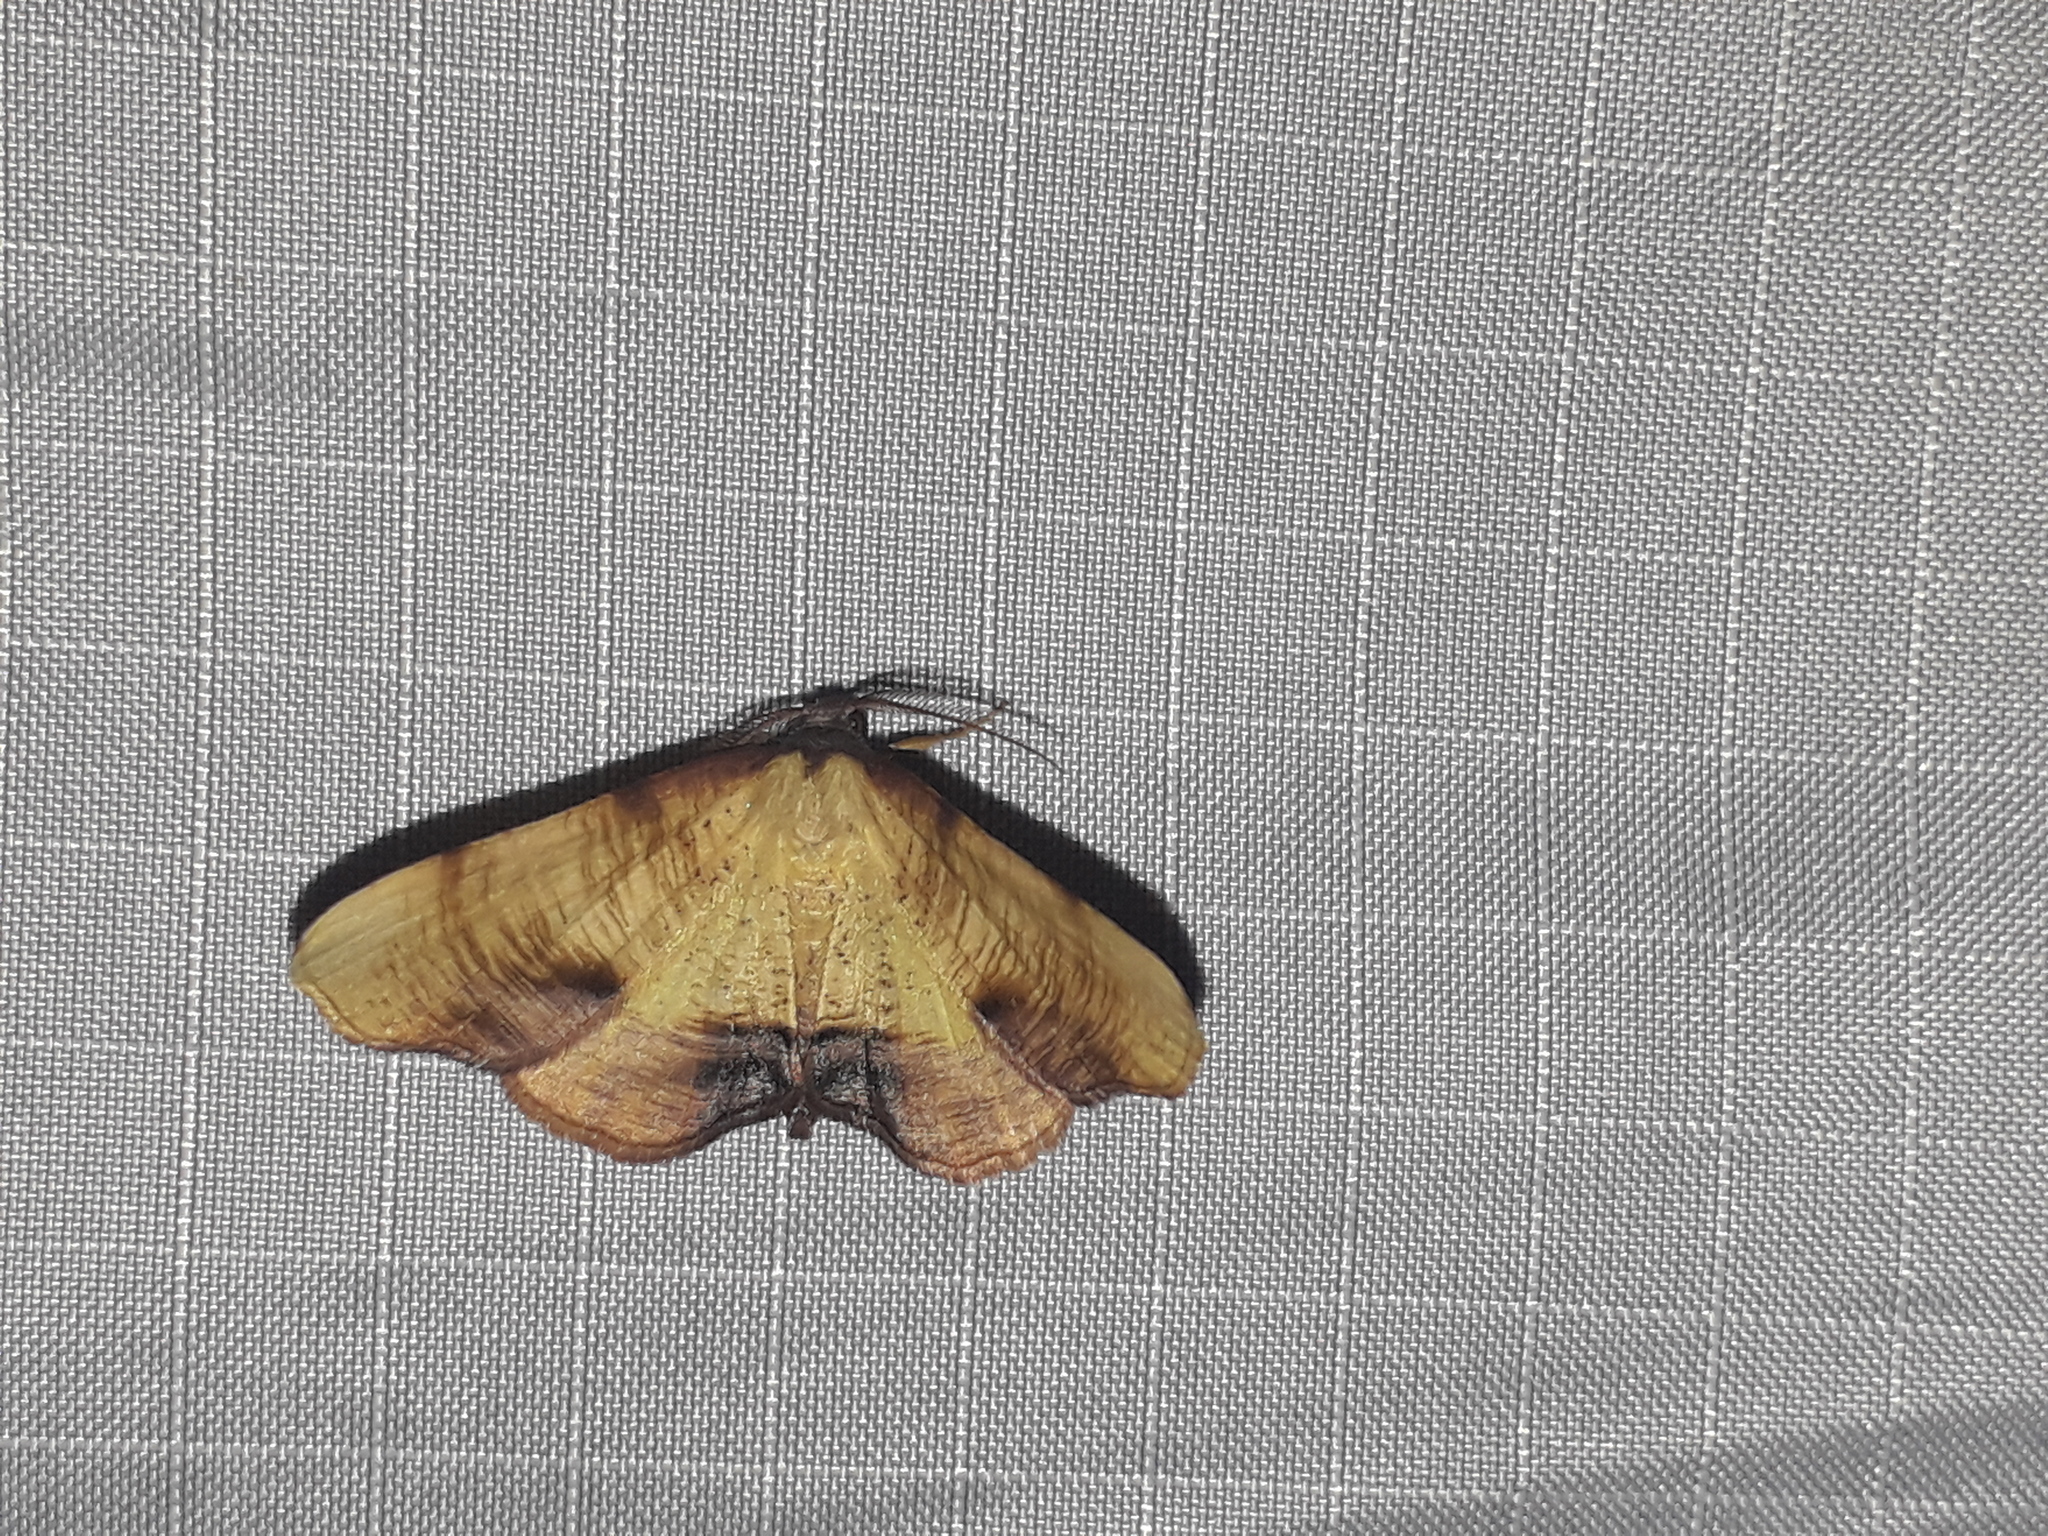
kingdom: Animalia
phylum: Arthropoda
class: Insecta
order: Lepidoptera
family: Geometridae
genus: Plagodis
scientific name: Plagodis dolabraria
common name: Scorched wing
